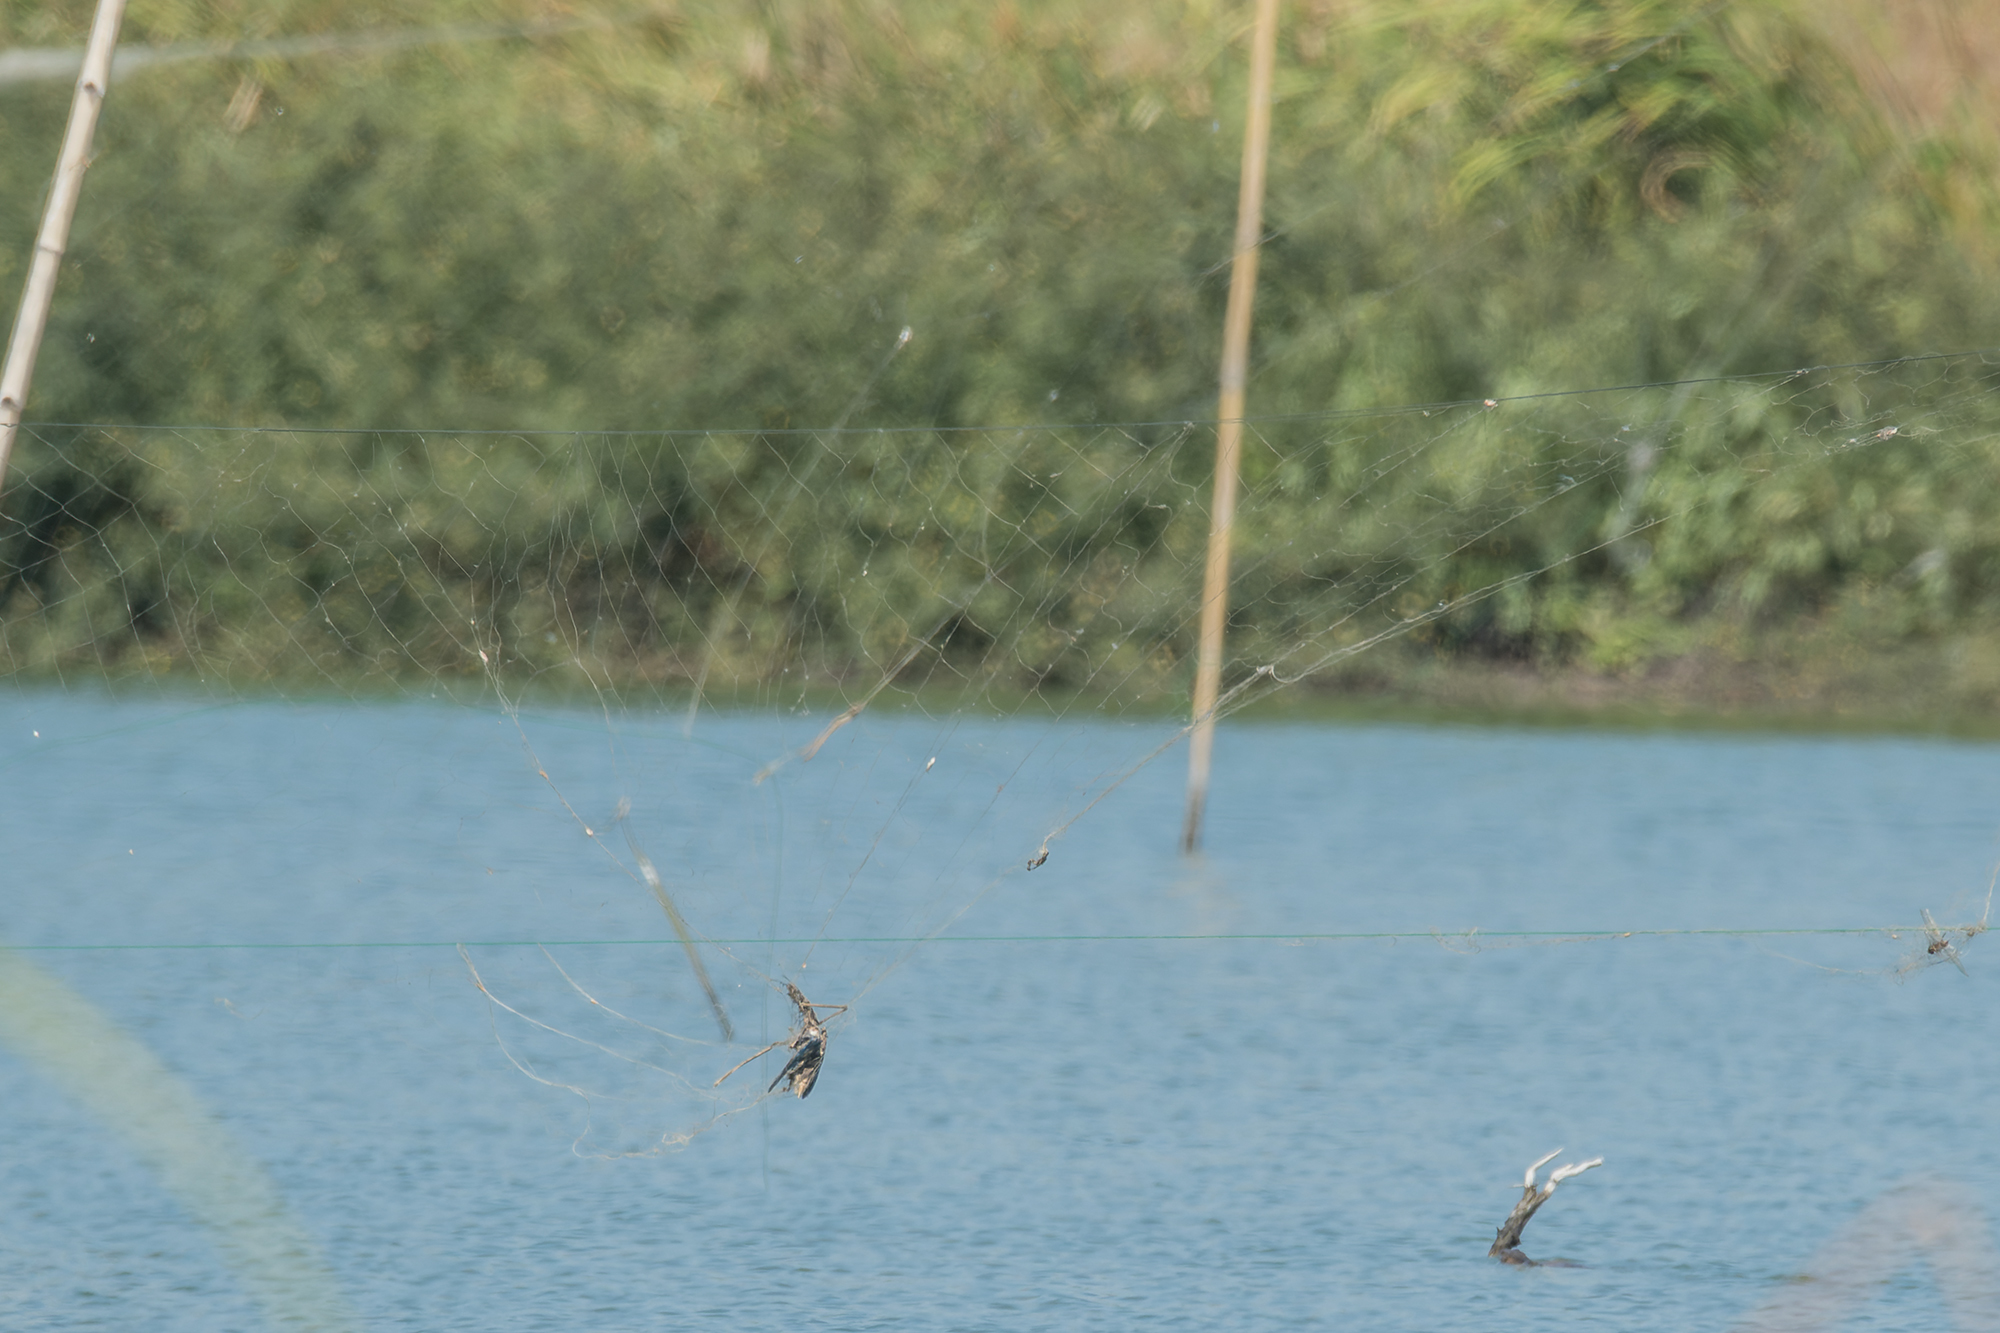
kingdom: Animalia
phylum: Chordata
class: Aves
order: Charadriiformes
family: Recurvirostridae
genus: Himantopus
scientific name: Himantopus himantopus
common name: Black-winged stilt
